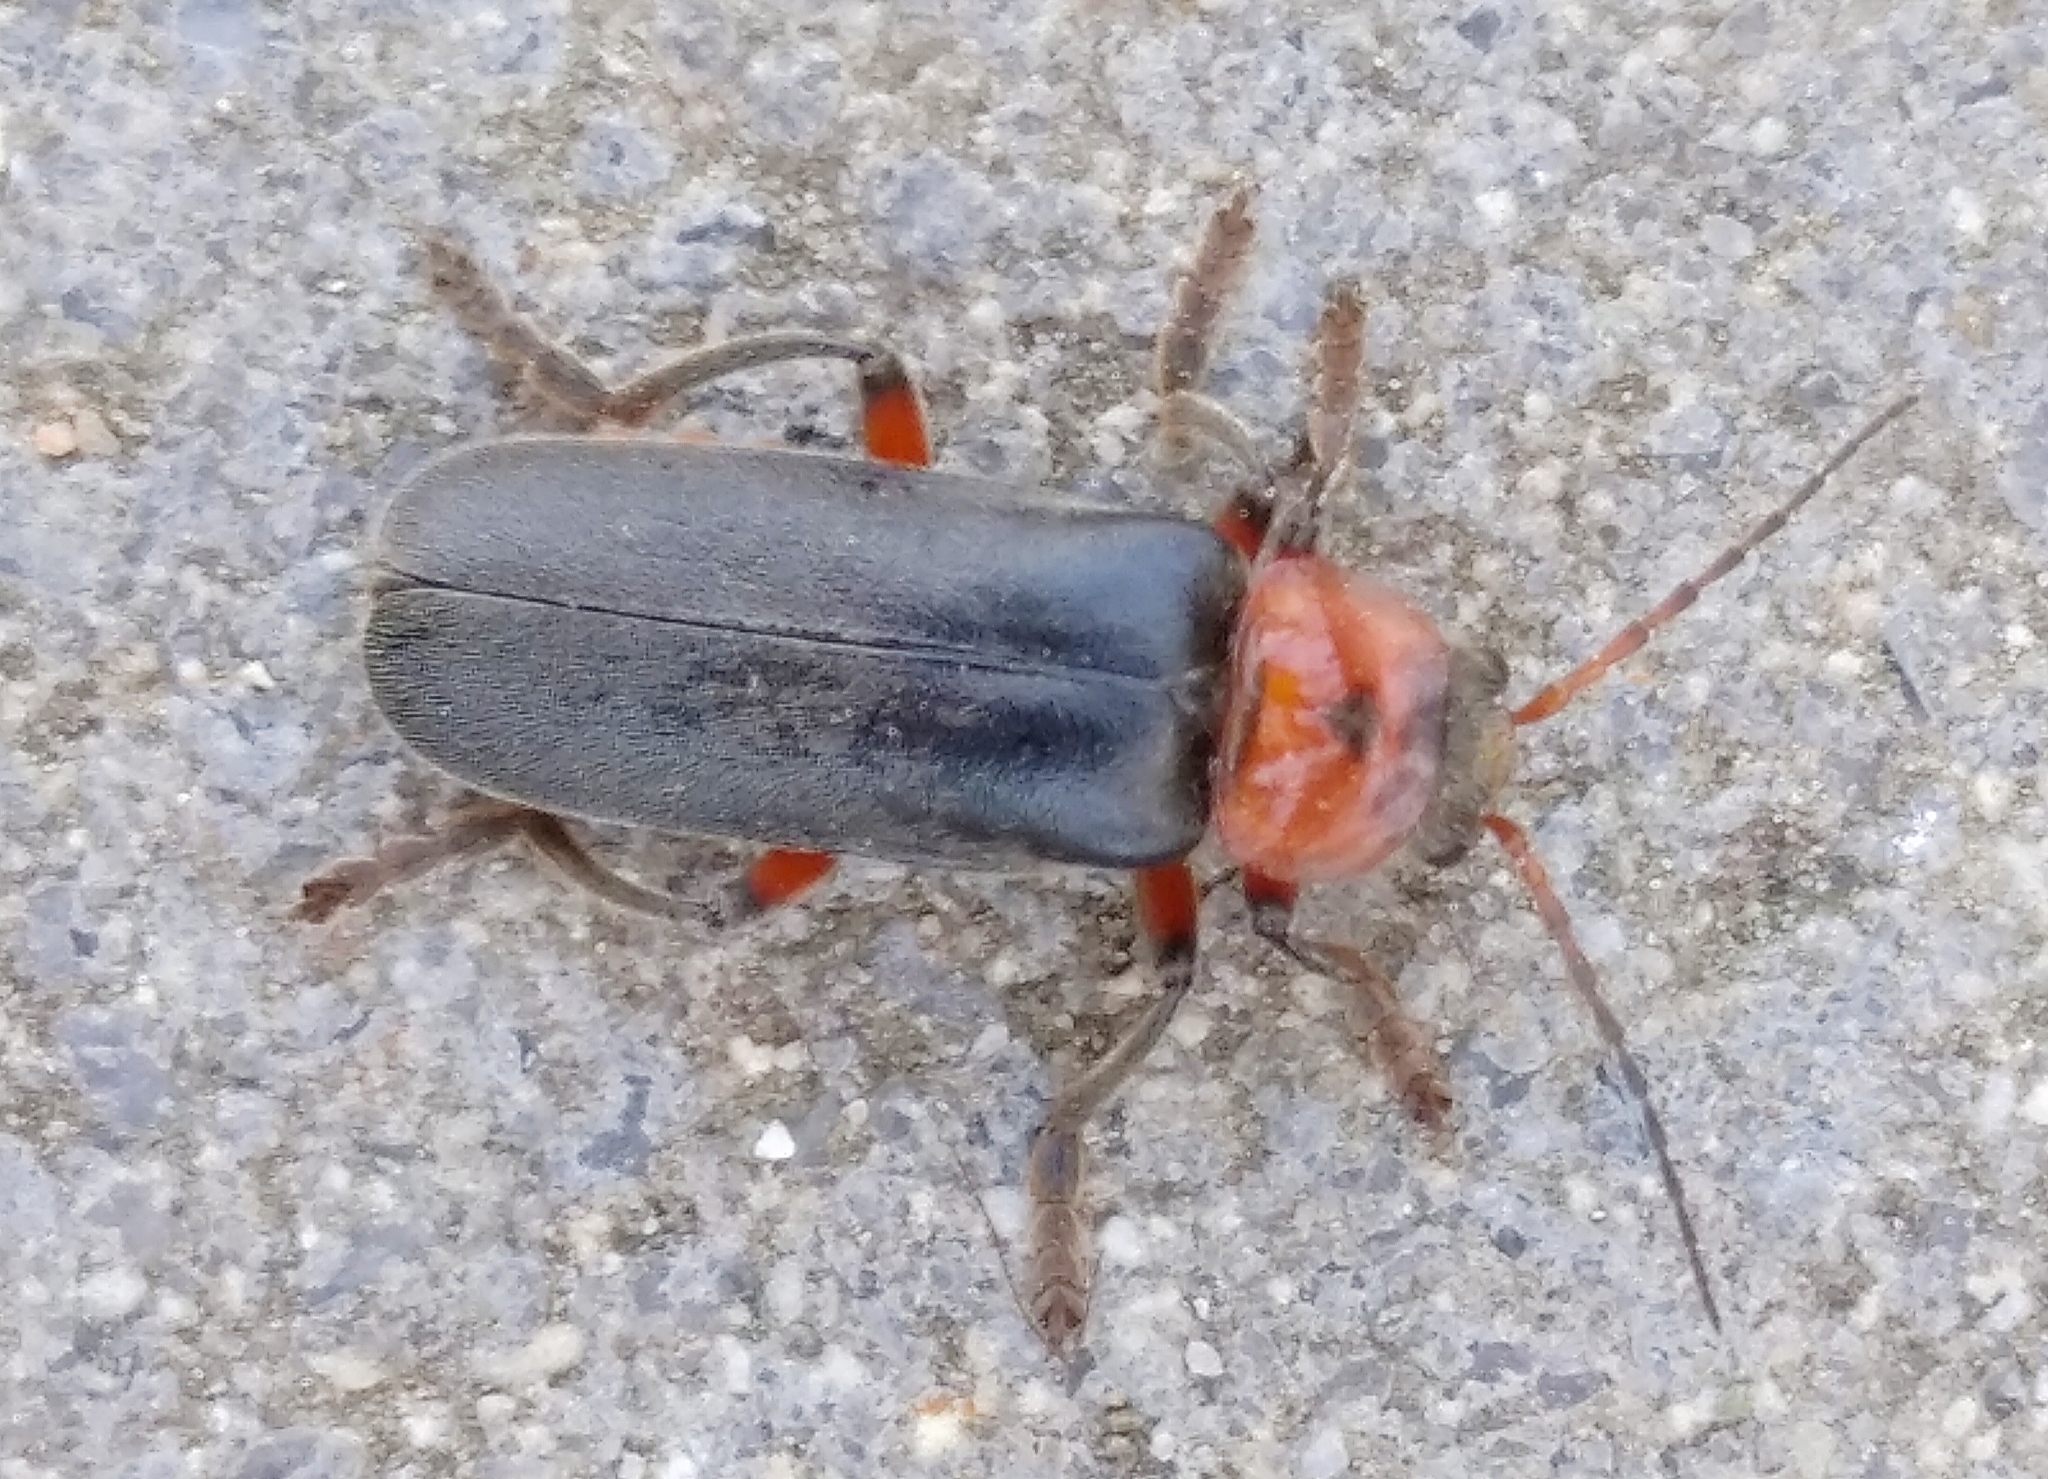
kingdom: Animalia
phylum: Arthropoda
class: Insecta
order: Coleoptera
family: Cantharidae
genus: Cantharis
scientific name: Cantharis rustica
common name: Soldier beetle
